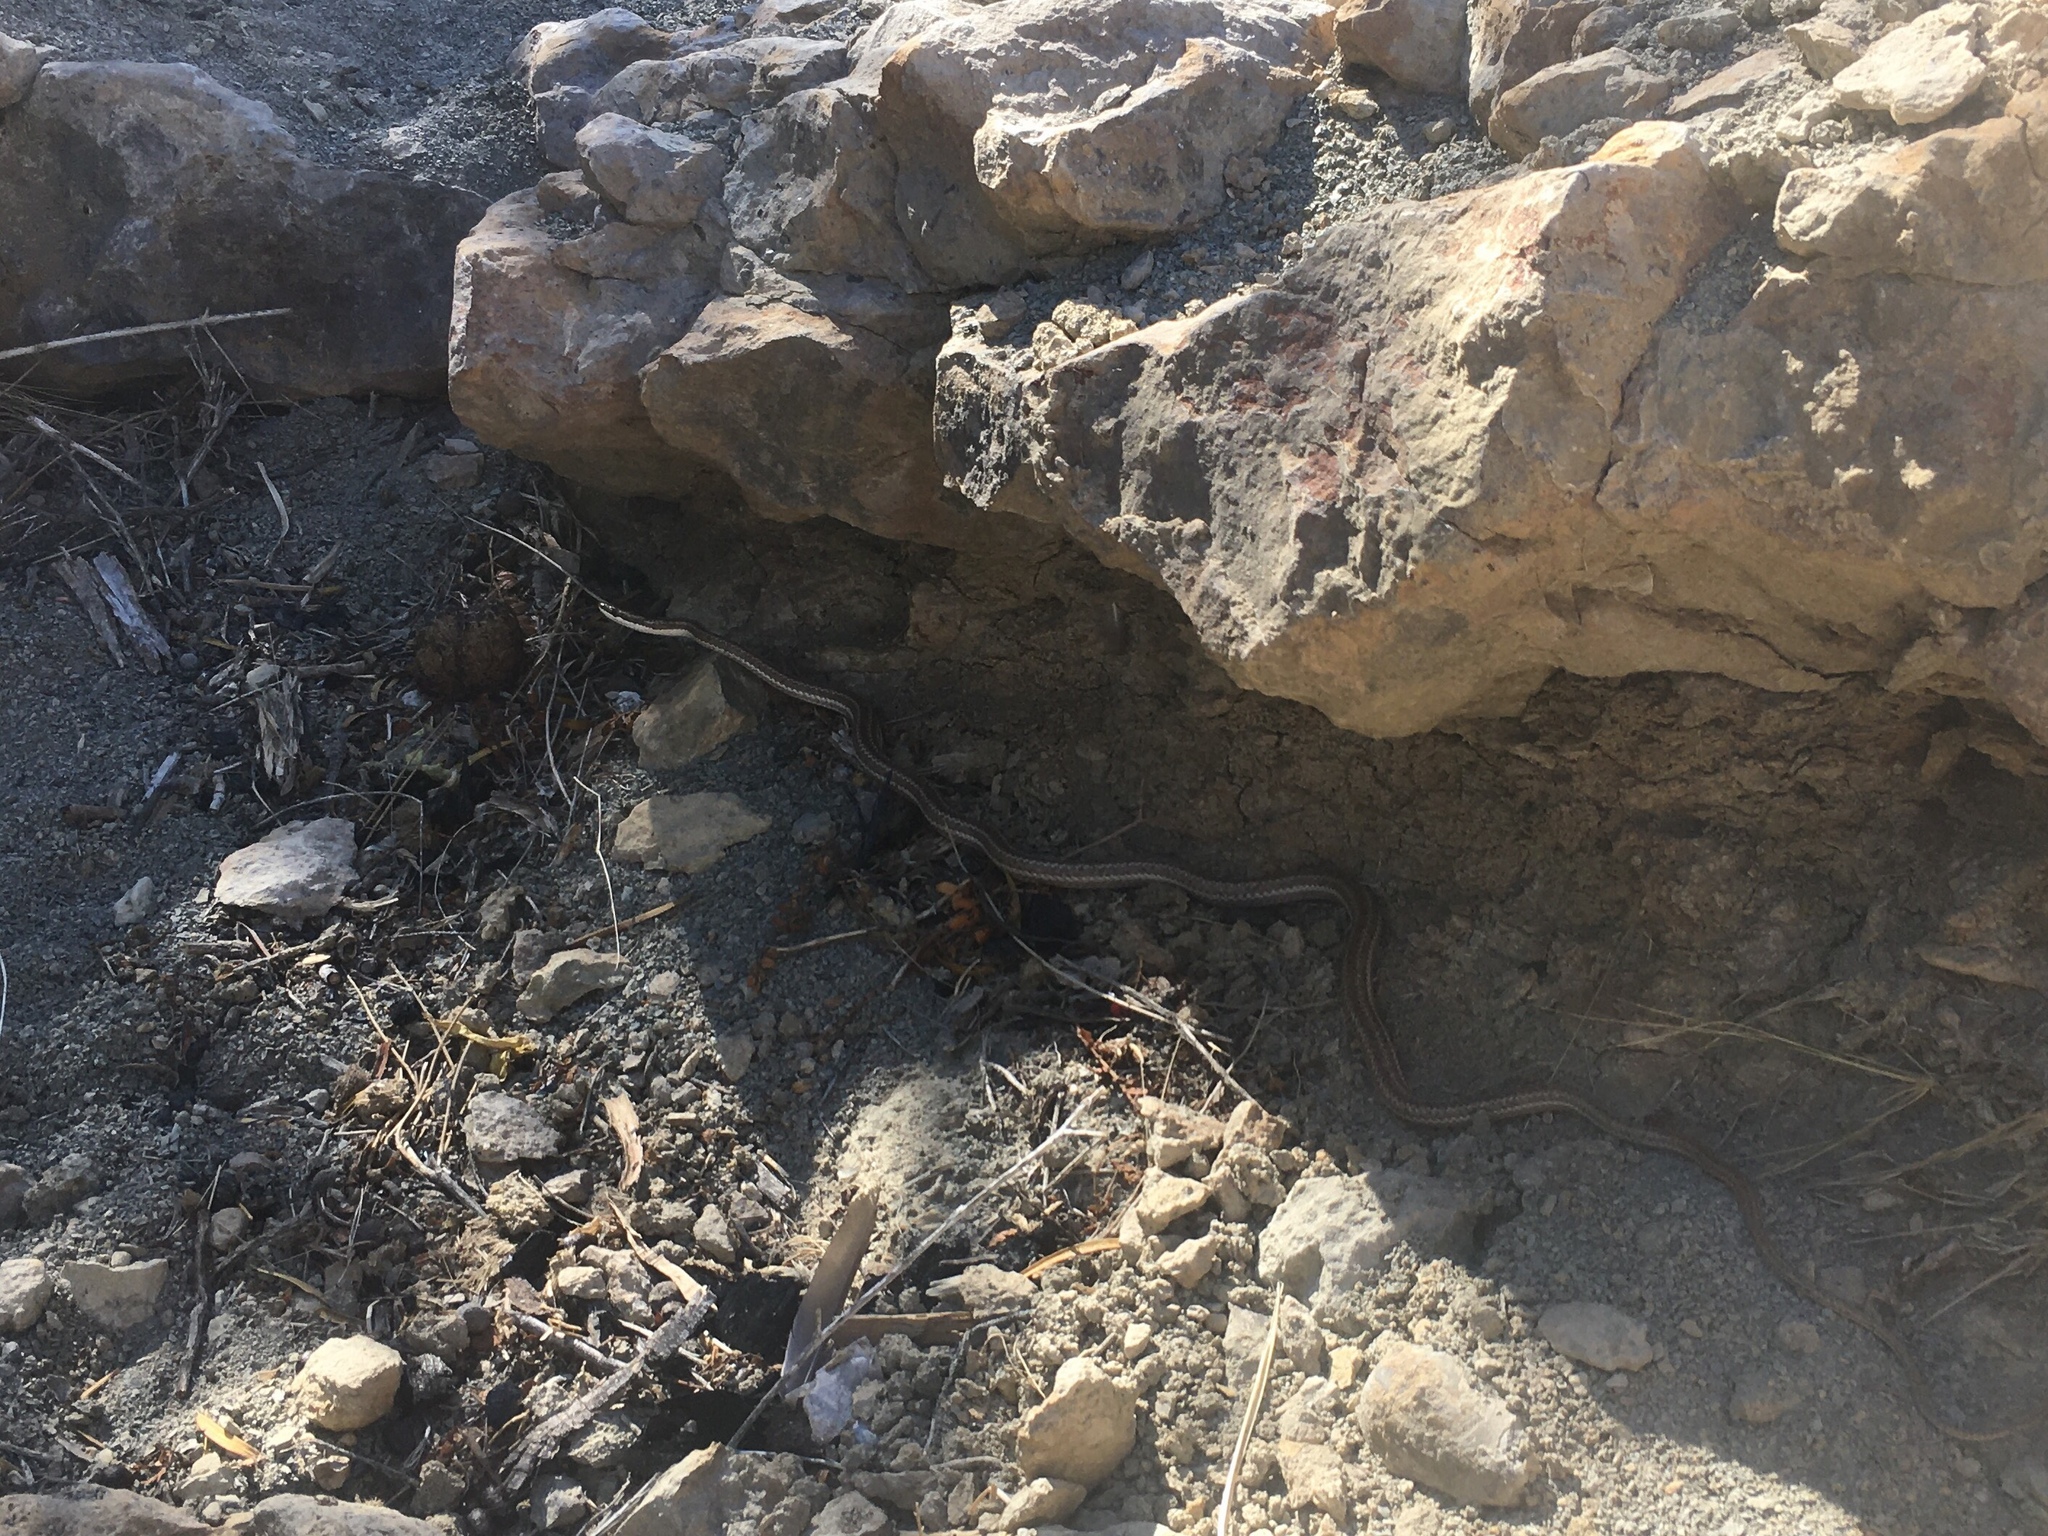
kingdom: Animalia
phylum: Chordata
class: Squamata
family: Colubridae
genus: Philodryas
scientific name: Philodryas trilineata
